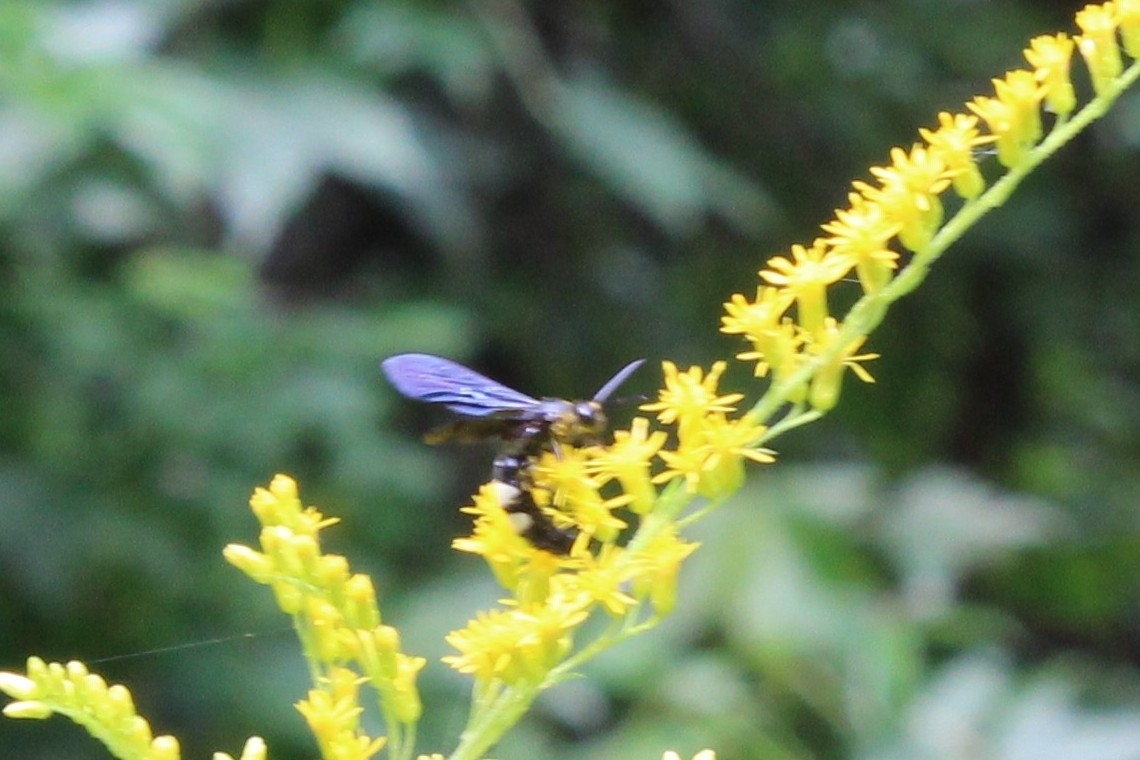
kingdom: Animalia
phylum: Arthropoda
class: Insecta
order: Hymenoptera
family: Scoliidae
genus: Scolia
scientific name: Scolia bicincta
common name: Double-banded scoliid wasp
